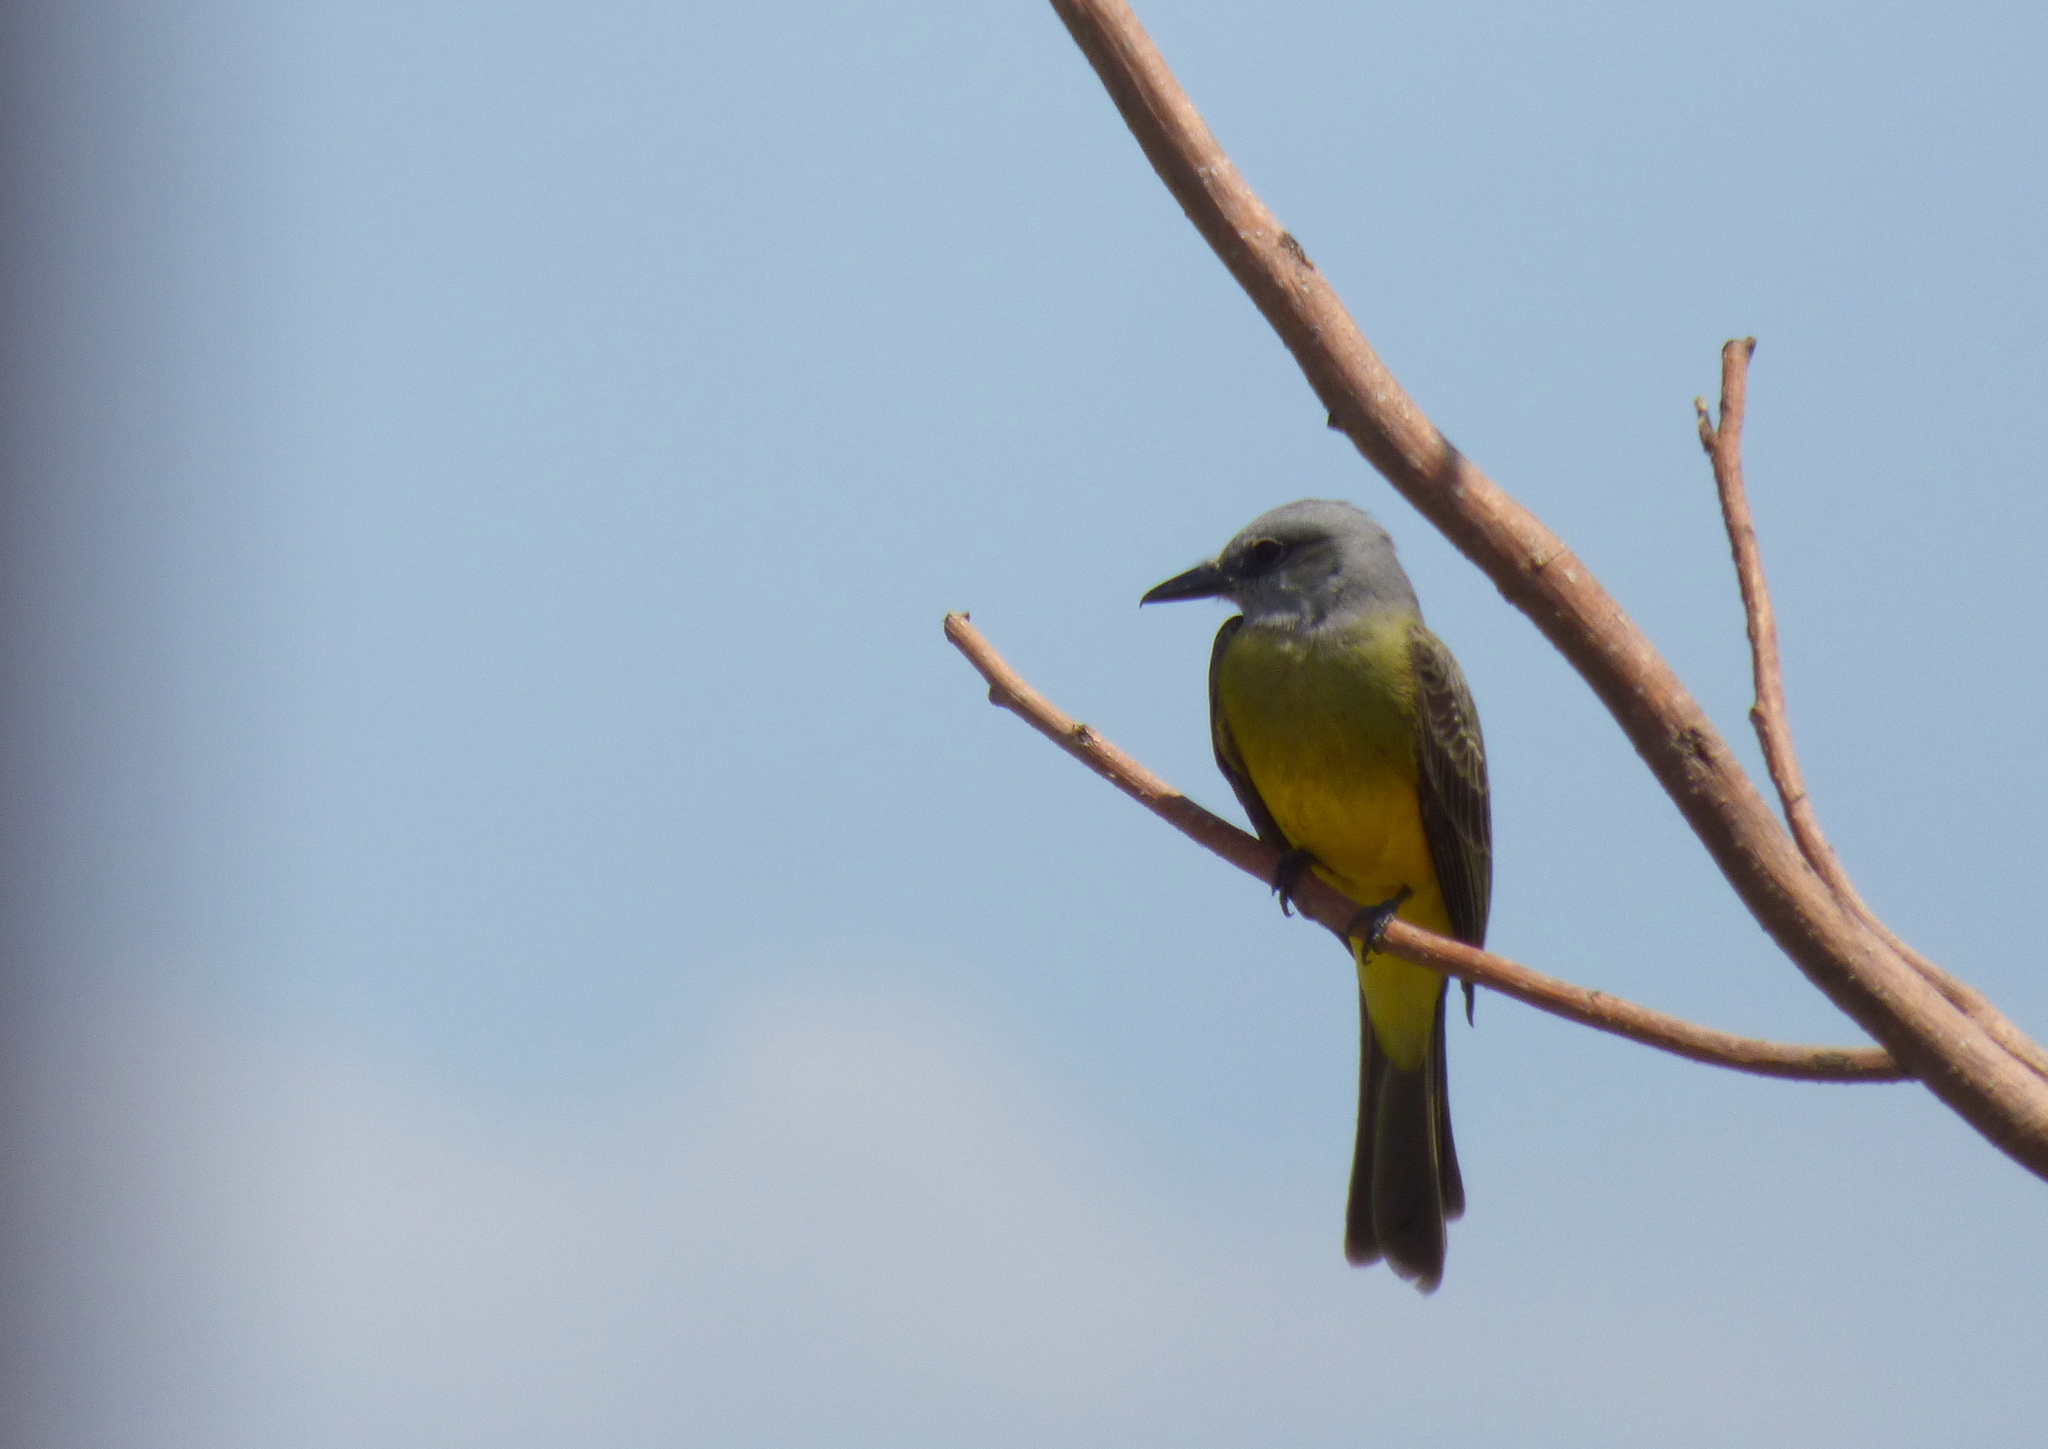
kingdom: Animalia
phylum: Chordata
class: Aves
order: Passeriformes
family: Tyrannidae
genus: Tyrannus
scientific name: Tyrannus melancholicus
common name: Tropical kingbird
